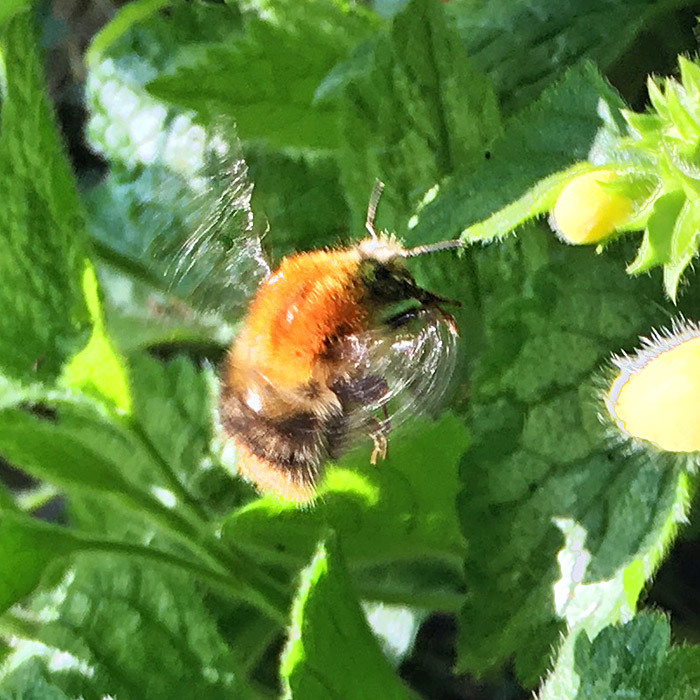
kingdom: Animalia
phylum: Arthropoda
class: Insecta
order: Hymenoptera
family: Apidae
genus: Bombus
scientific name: Bombus pascuorum
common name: Common carder bee
